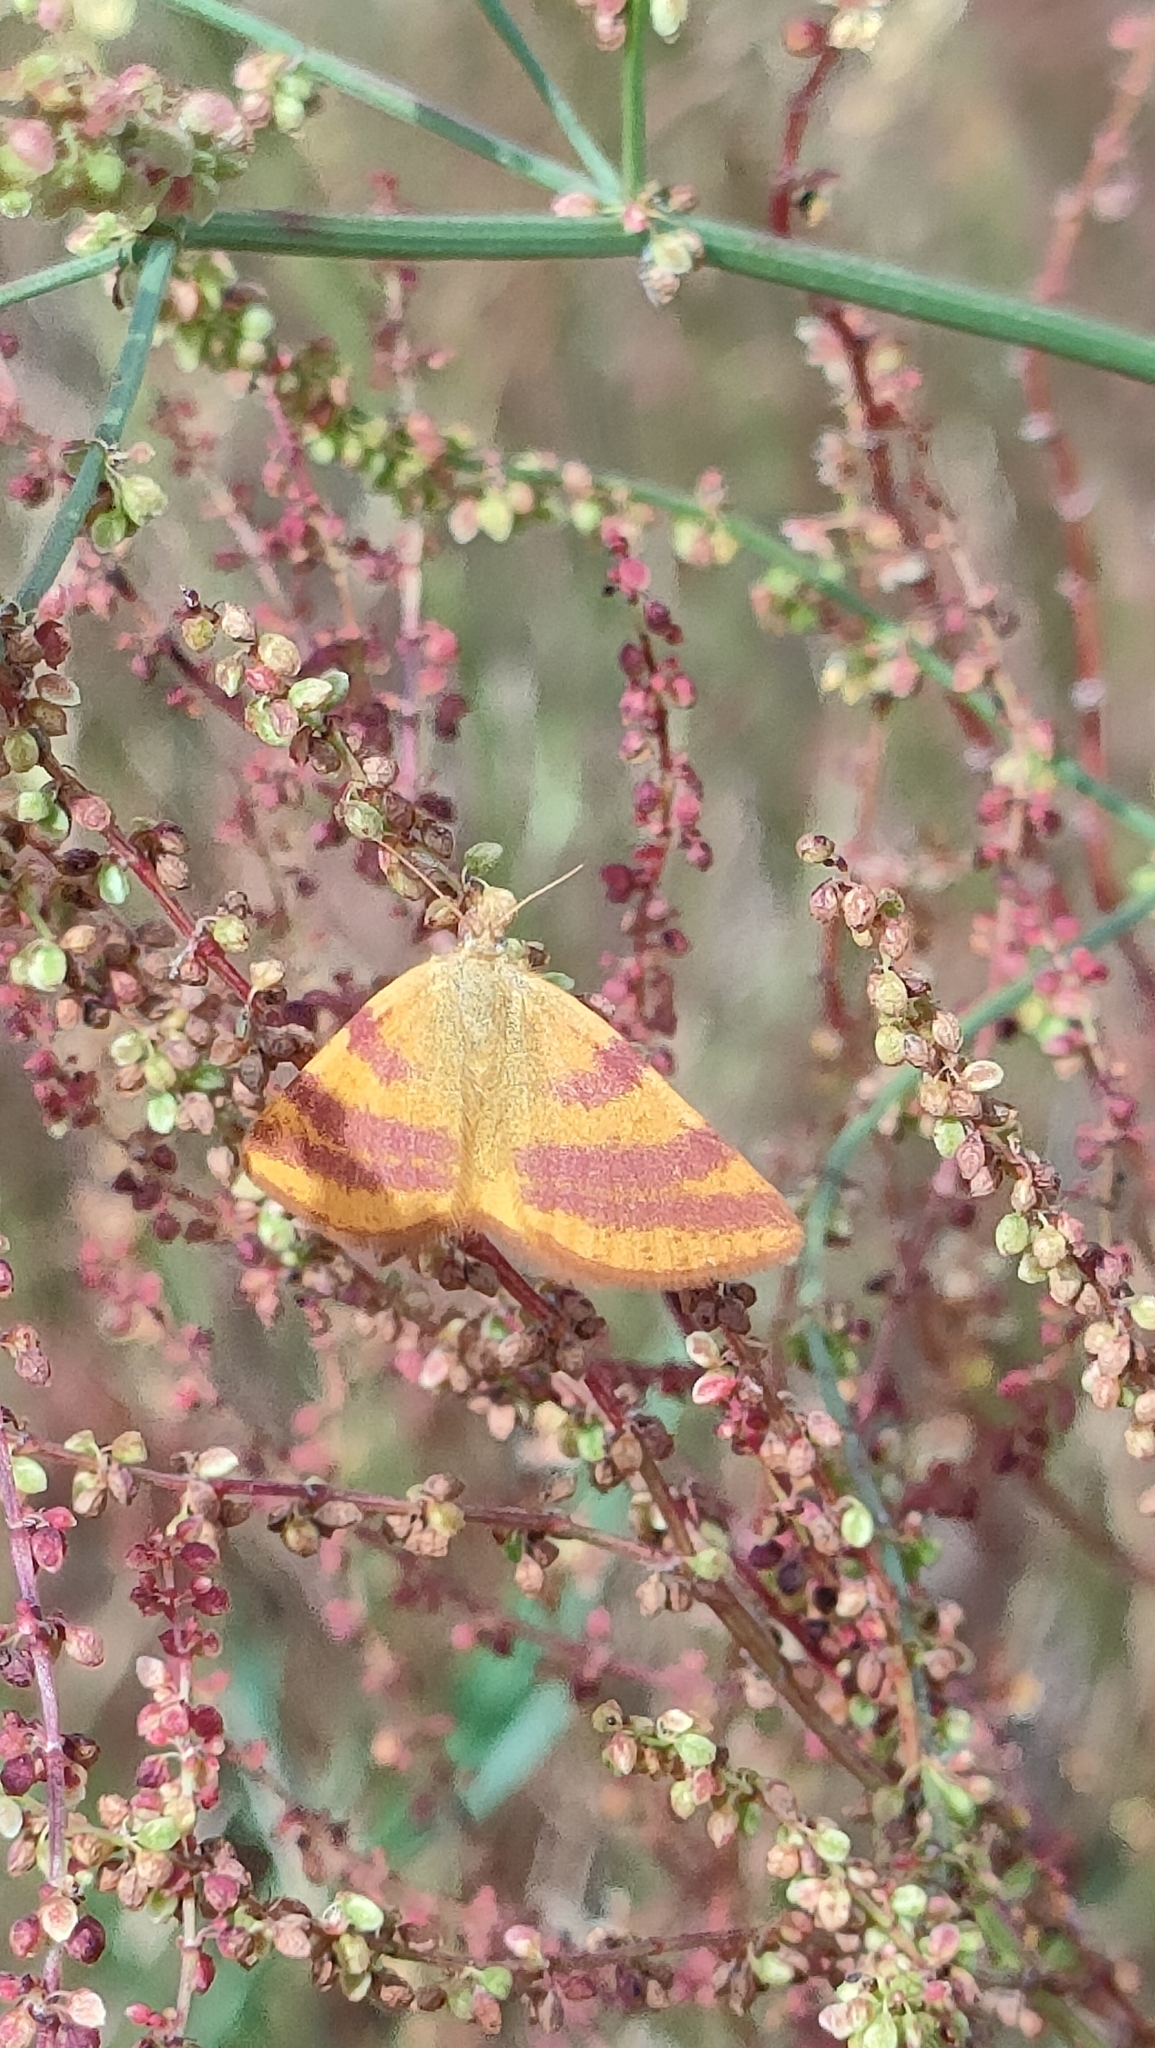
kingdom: Animalia
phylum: Arthropoda
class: Insecta
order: Lepidoptera
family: Geometridae
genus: Lythria
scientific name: Lythria cruentaria
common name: Purple-barred yellow
